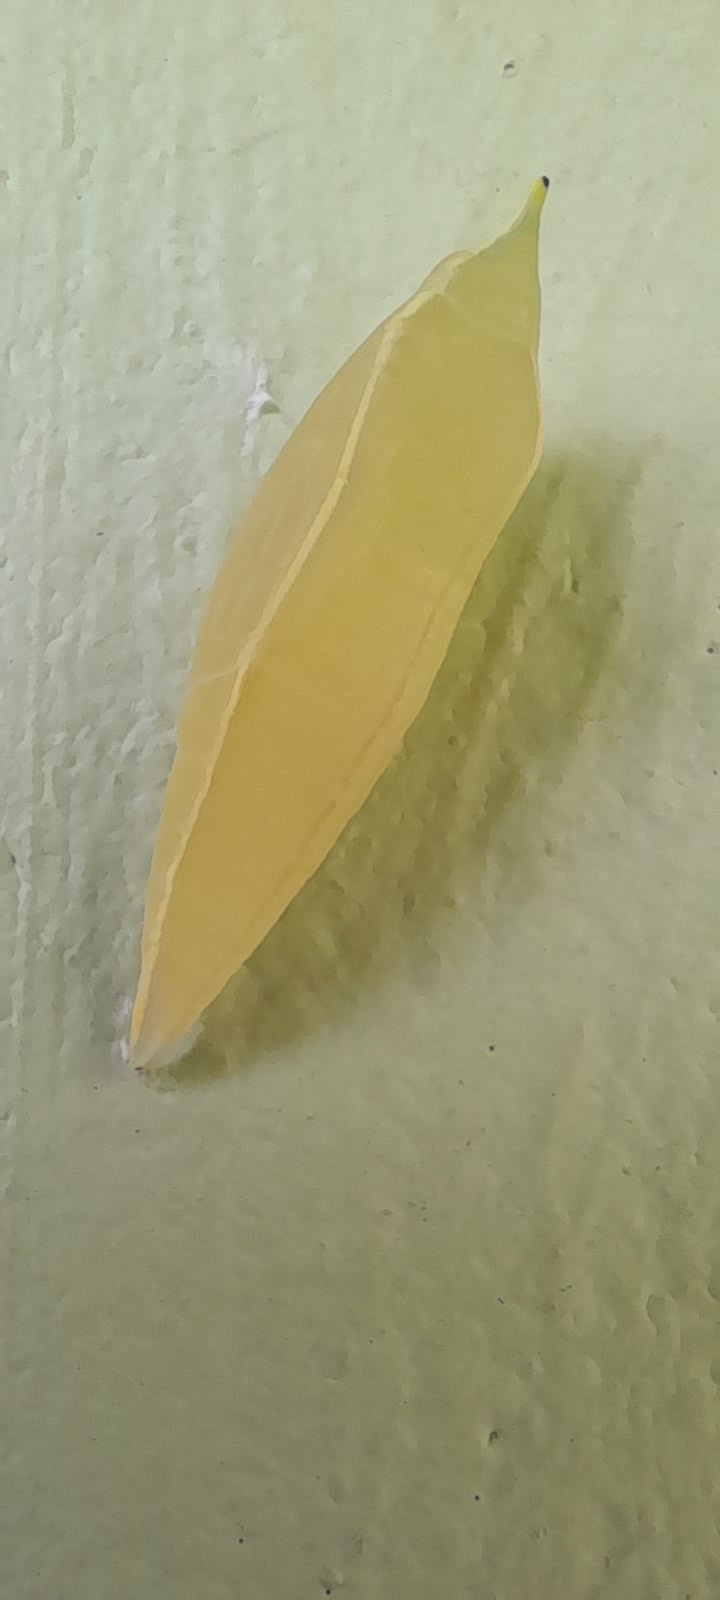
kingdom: Animalia
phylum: Arthropoda
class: Insecta
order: Lepidoptera
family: Pieridae
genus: Catopsilia
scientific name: Catopsilia pomona
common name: Common emigrant
